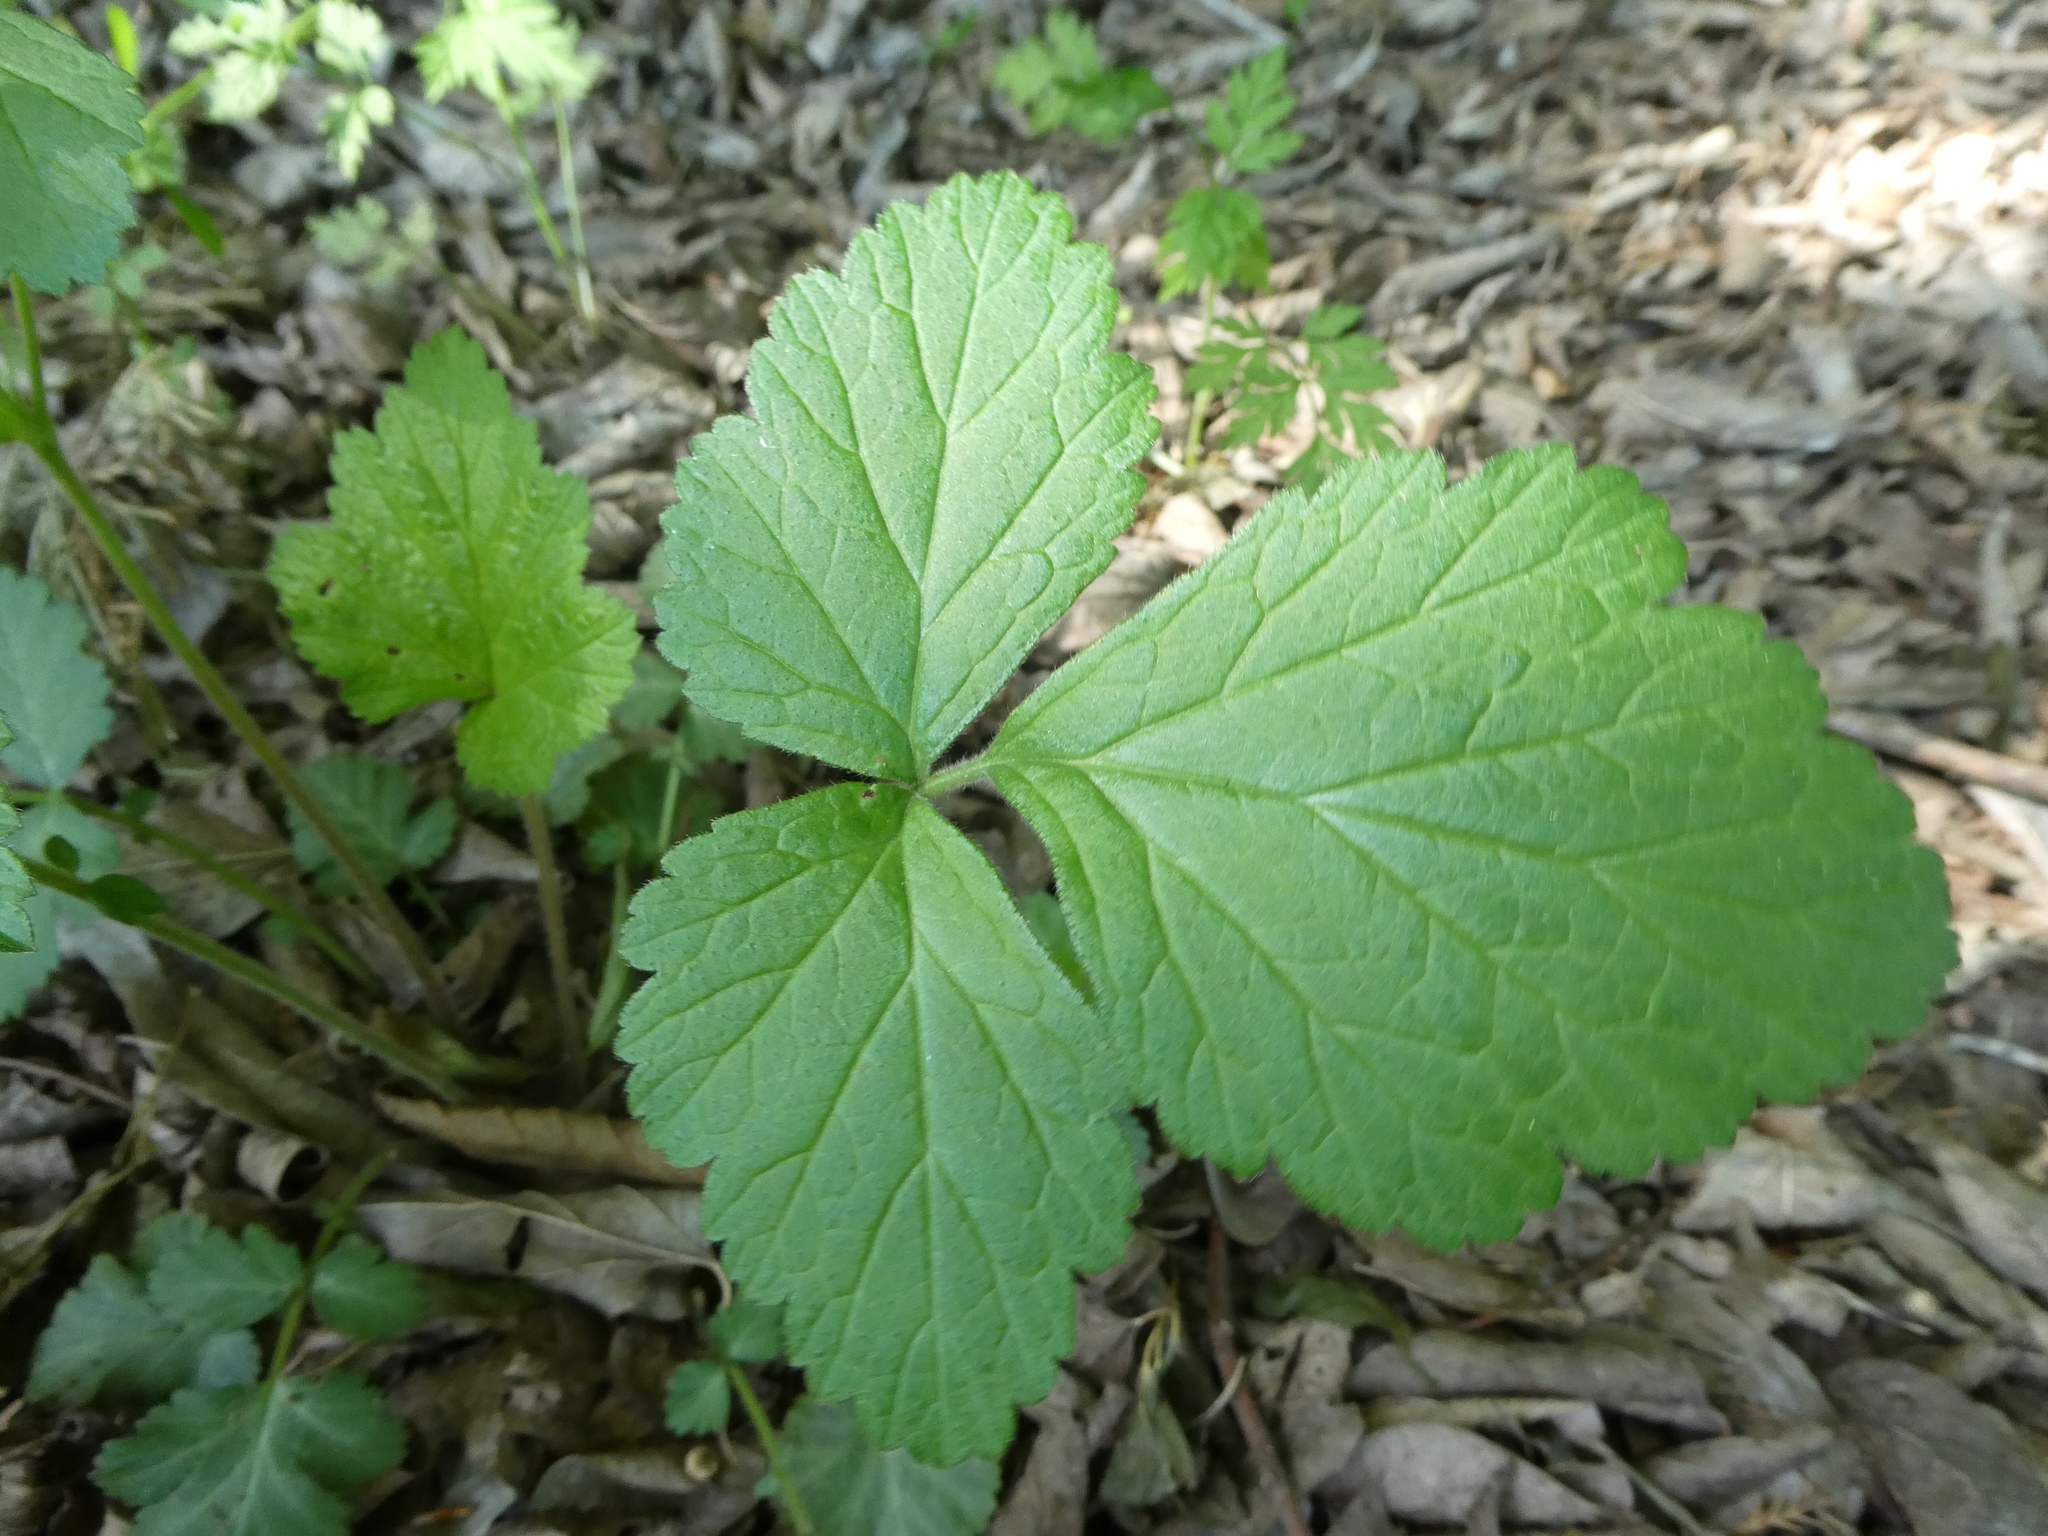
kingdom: Plantae
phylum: Tracheophyta
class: Magnoliopsida
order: Rosales
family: Rosaceae
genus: Geum
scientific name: Geum canadense
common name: White avens
